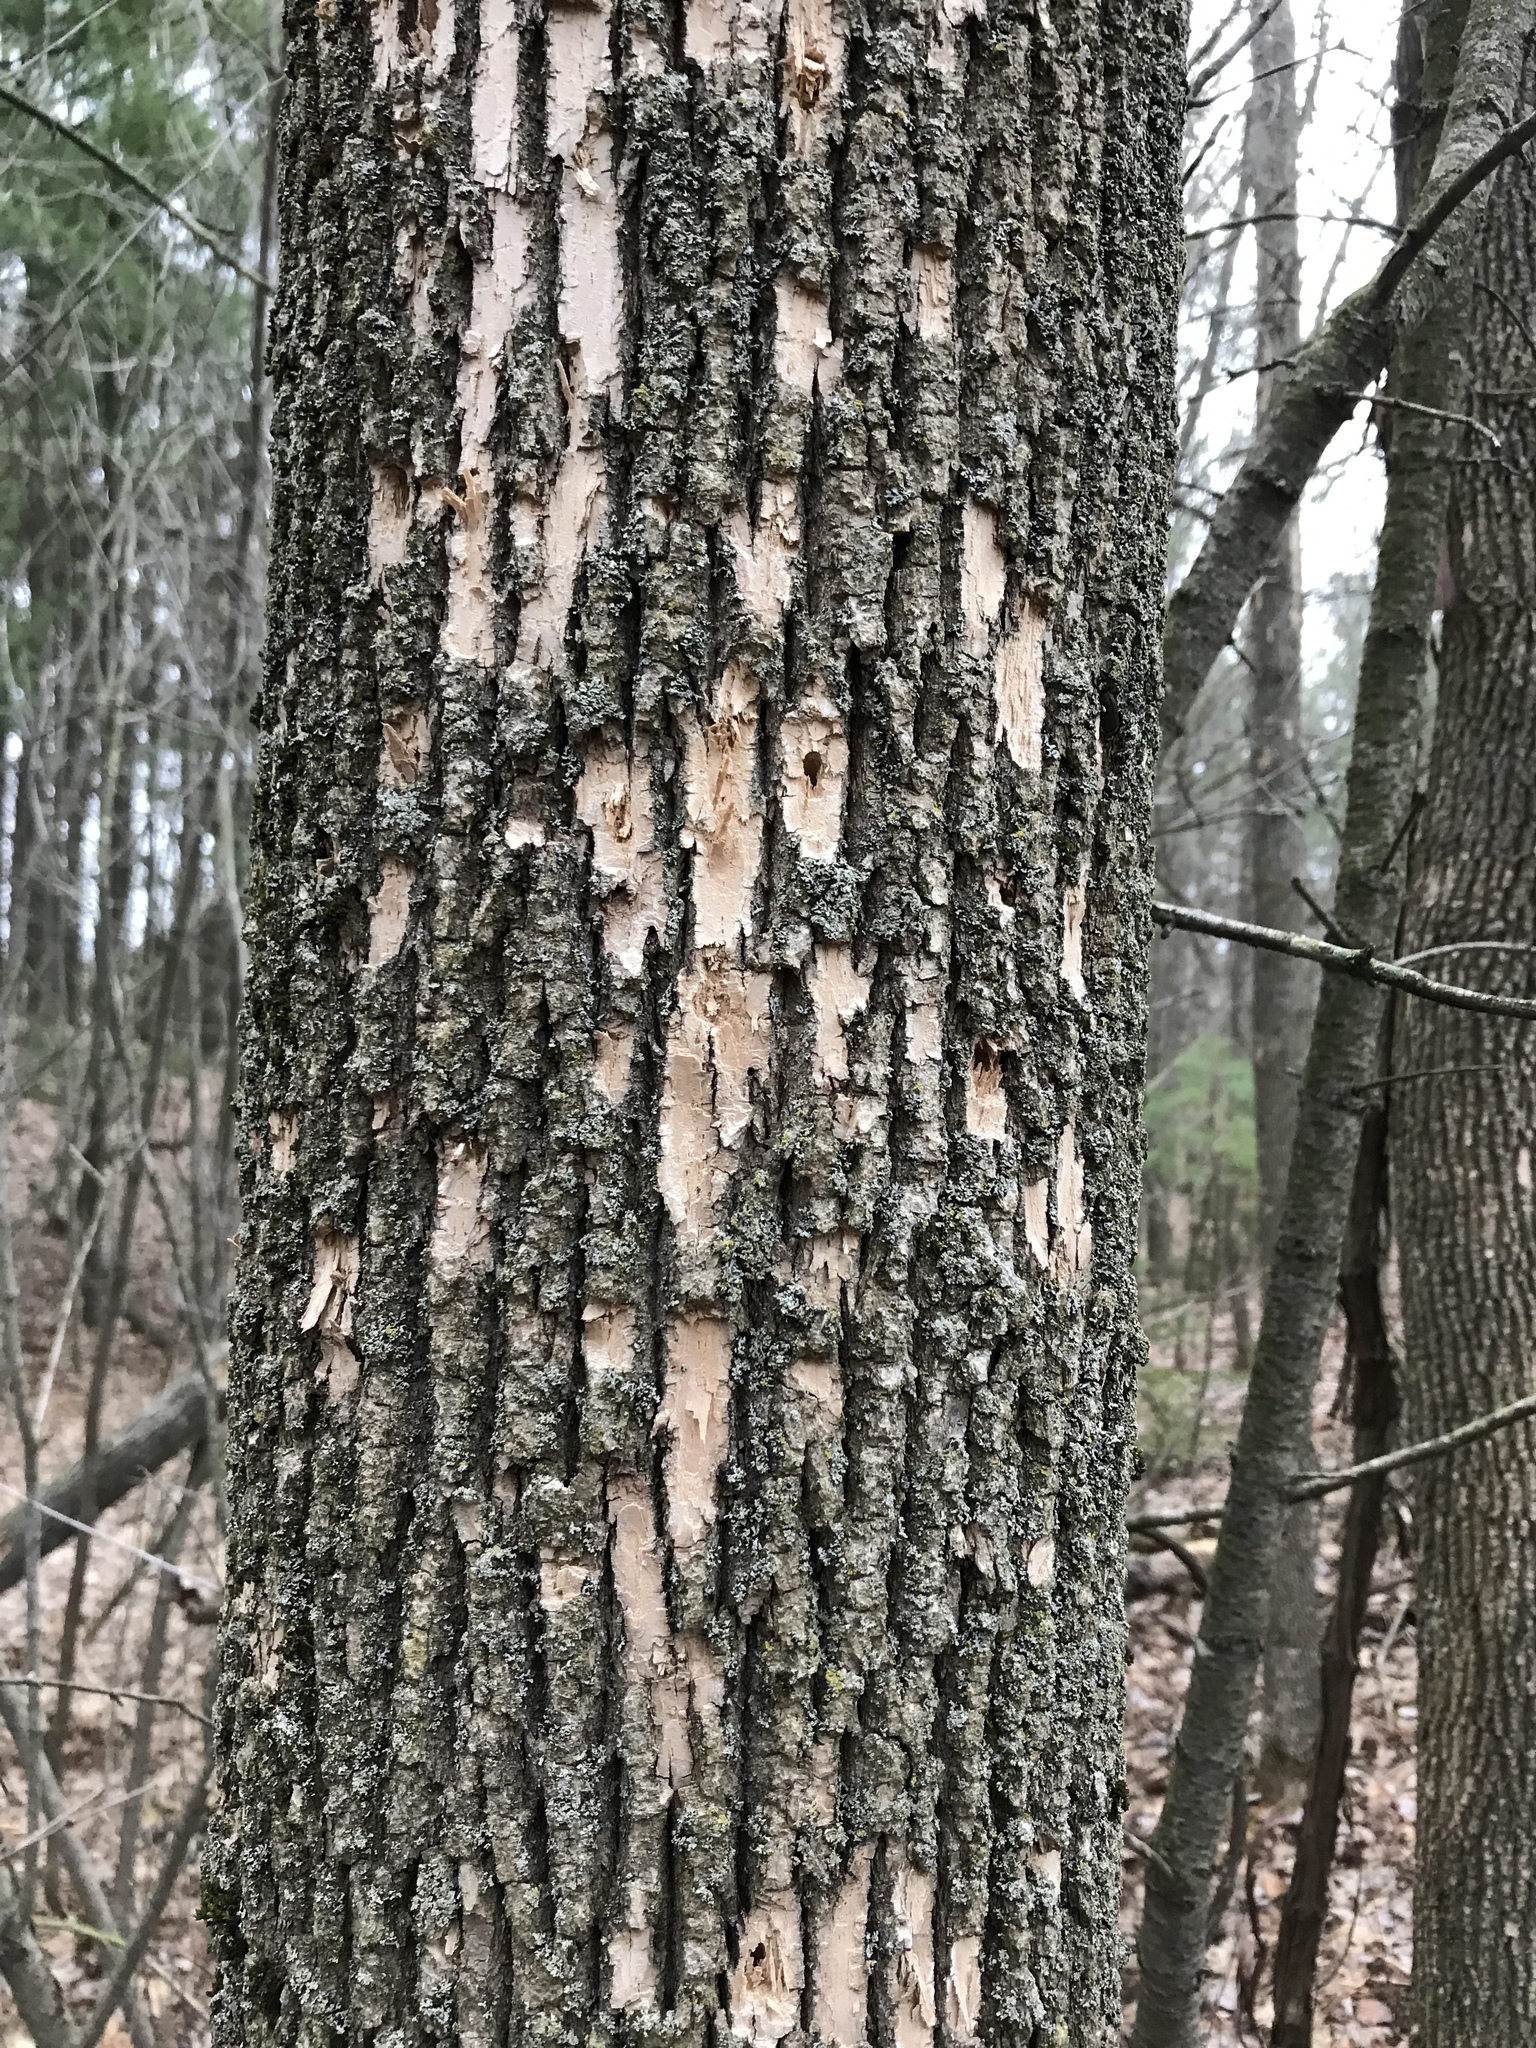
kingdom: Animalia
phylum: Arthropoda
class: Insecta
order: Coleoptera
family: Buprestidae
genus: Agrilus
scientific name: Agrilus planipennis
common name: Emerald ash borer
